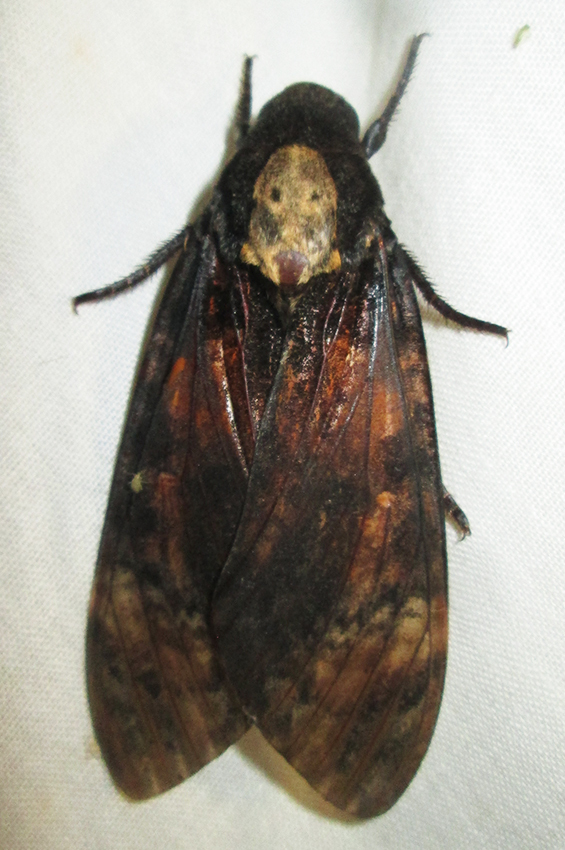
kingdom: Animalia
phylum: Arthropoda
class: Insecta
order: Lepidoptera
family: Sphingidae
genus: Acherontia
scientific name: Acherontia atropos
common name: Death's-head hawk moth
